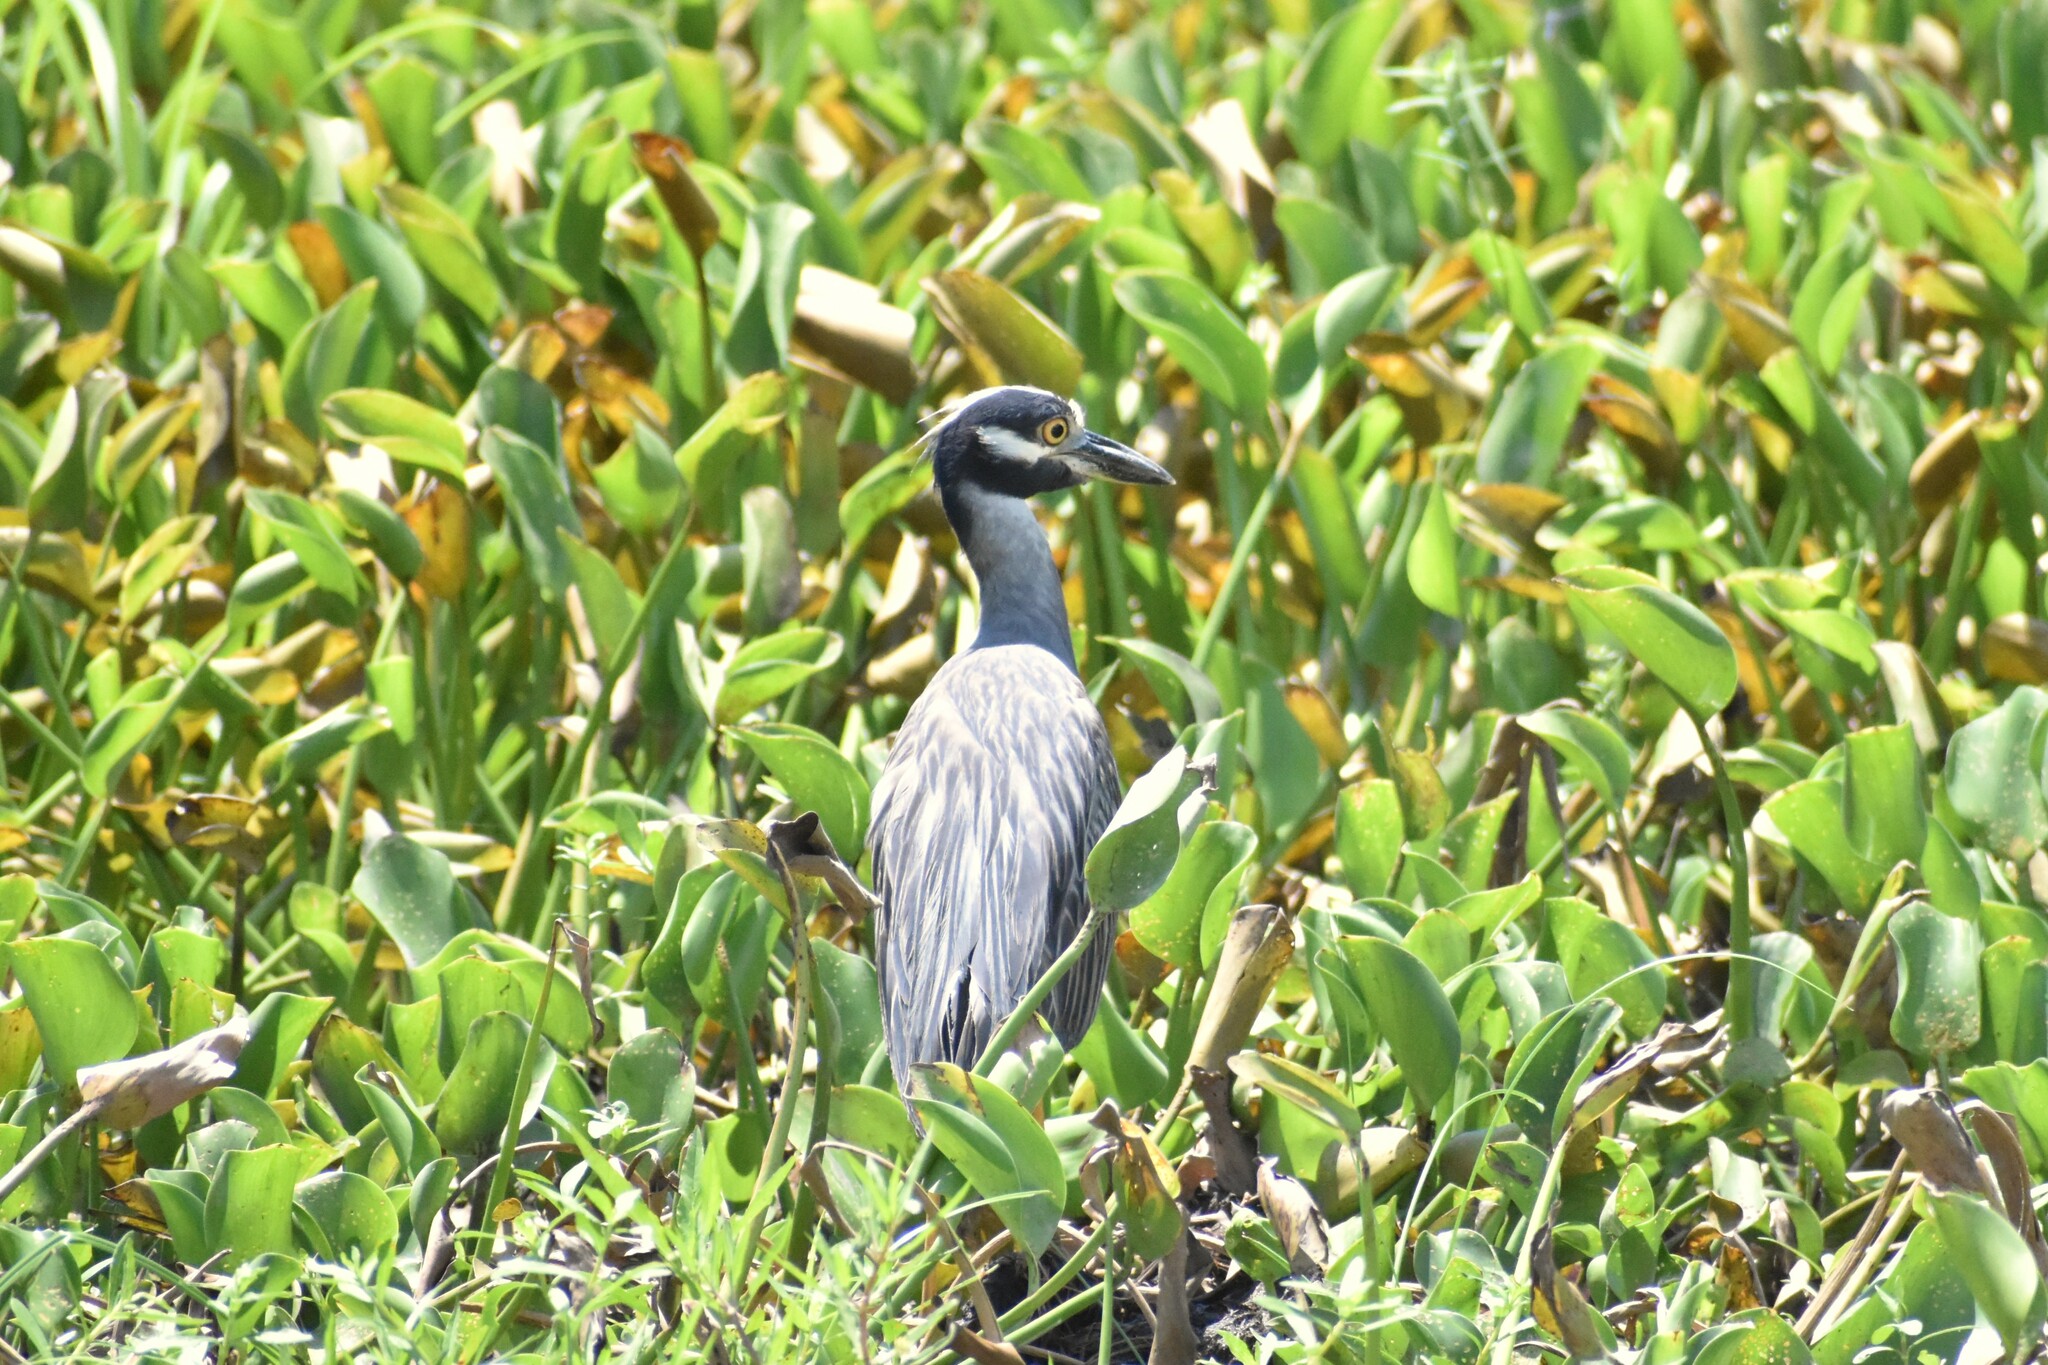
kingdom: Animalia
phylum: Chordata
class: Aves
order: Pelecaniformes
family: Ardeidae
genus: Nyctanassa
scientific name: Nyctanassa violacea
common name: Yellow-crowned night heron
